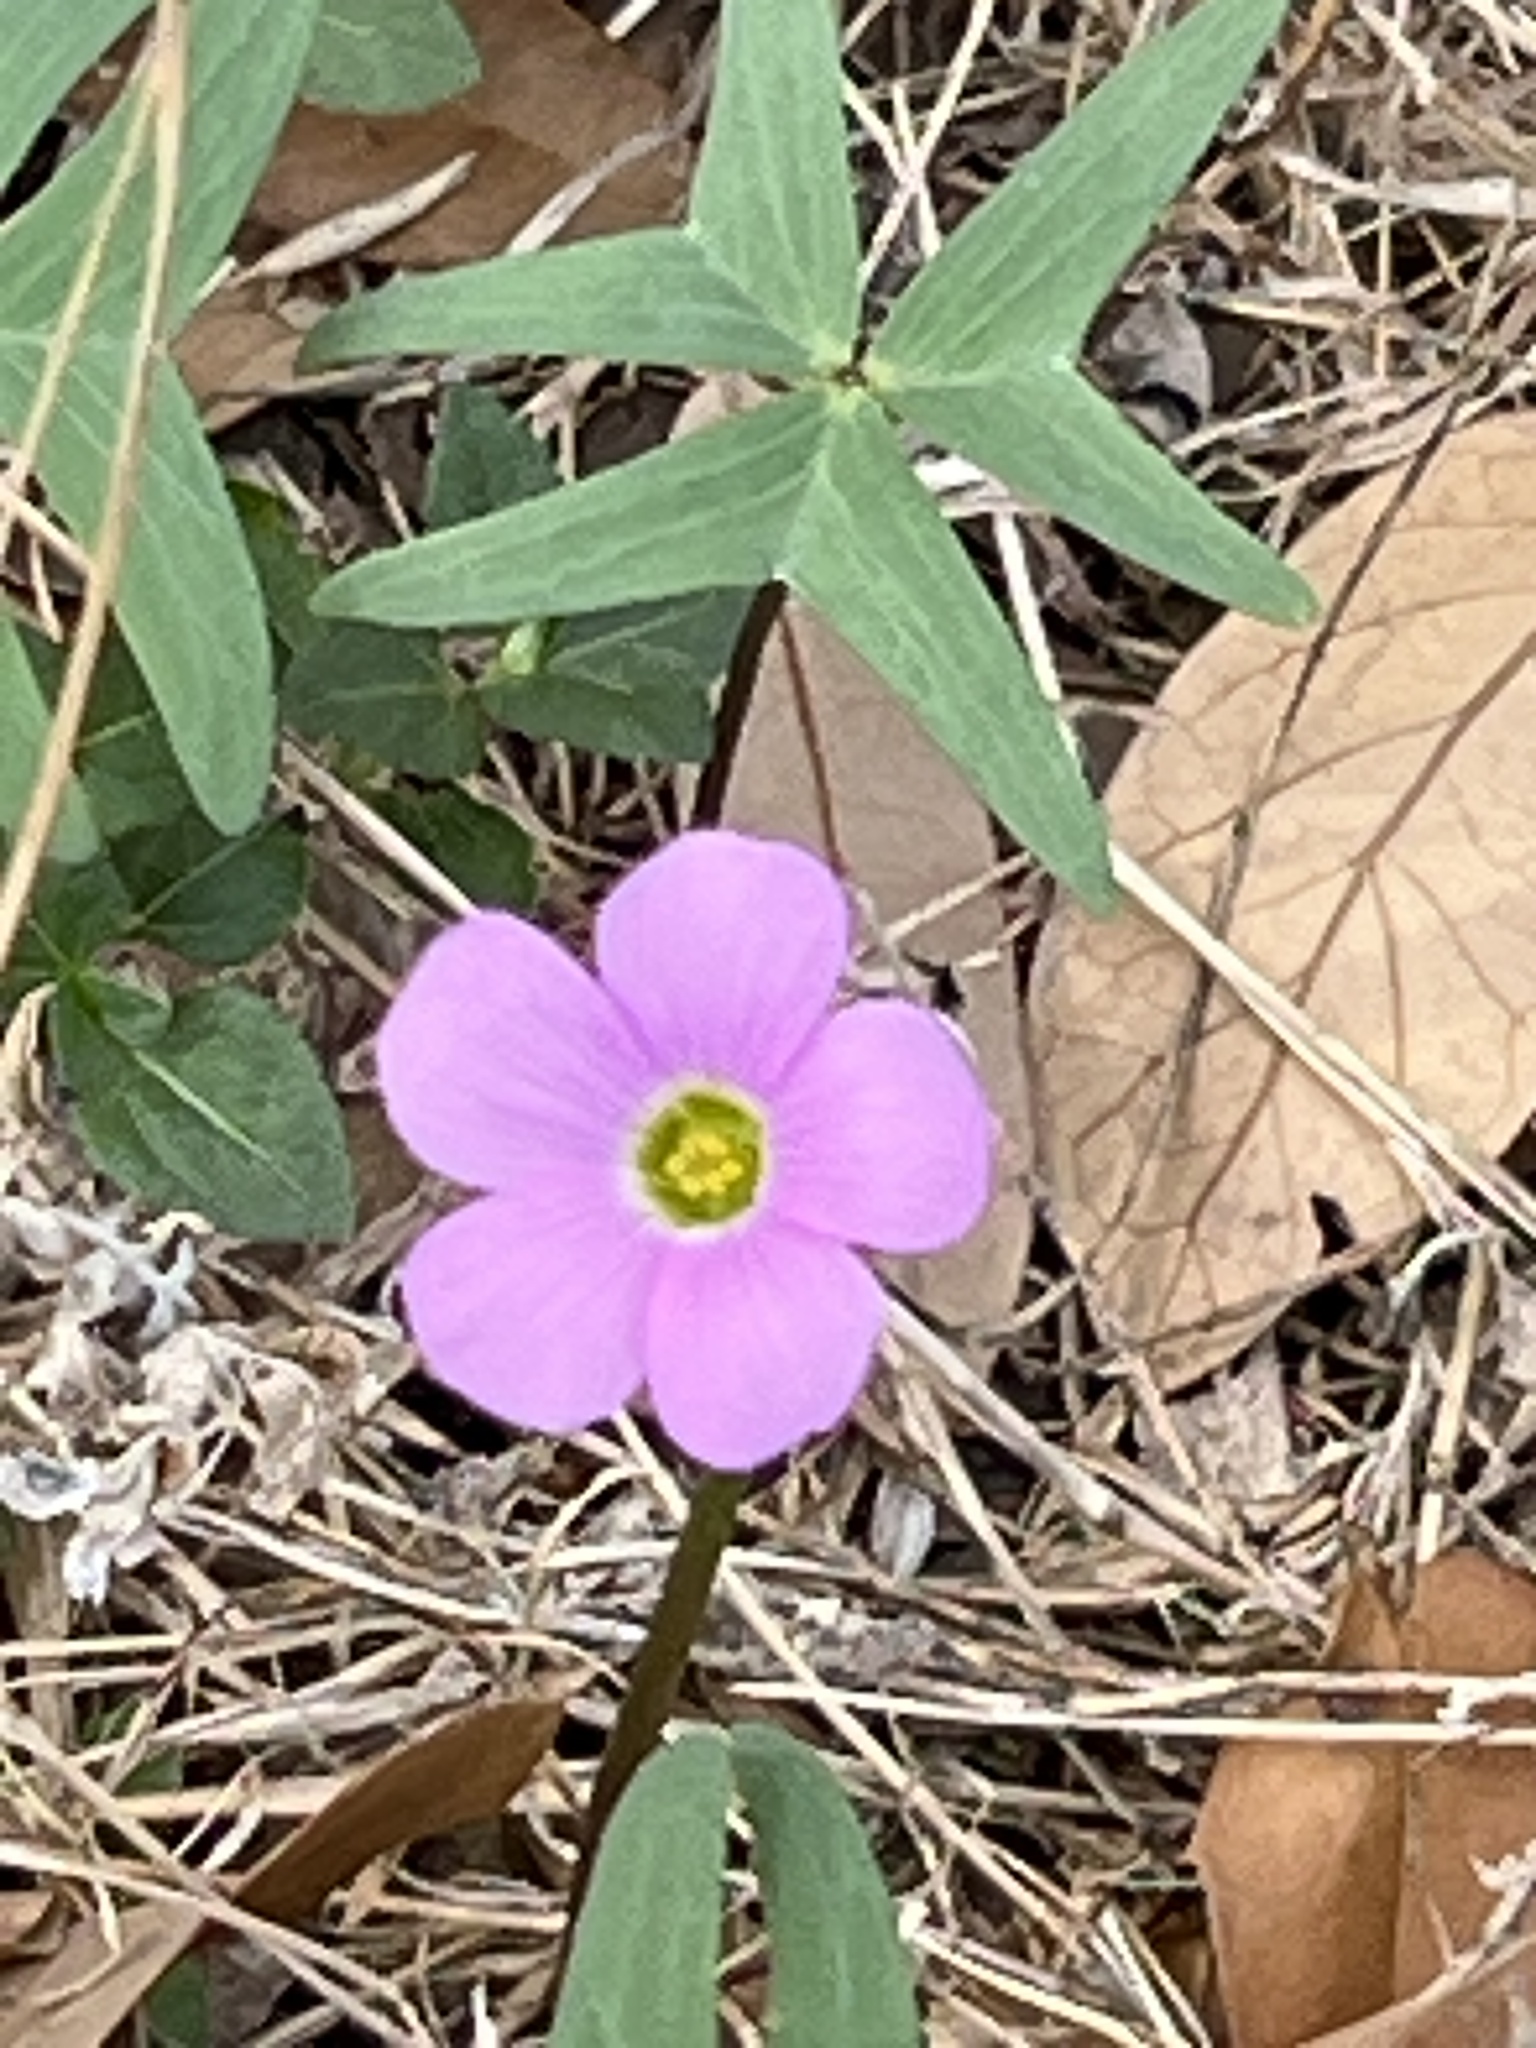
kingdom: Plantae
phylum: Tracheophyta
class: Magnoliopsida
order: Oxalidales
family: Oxalidaceae
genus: Oxalis
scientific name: Oxalis drummondii
